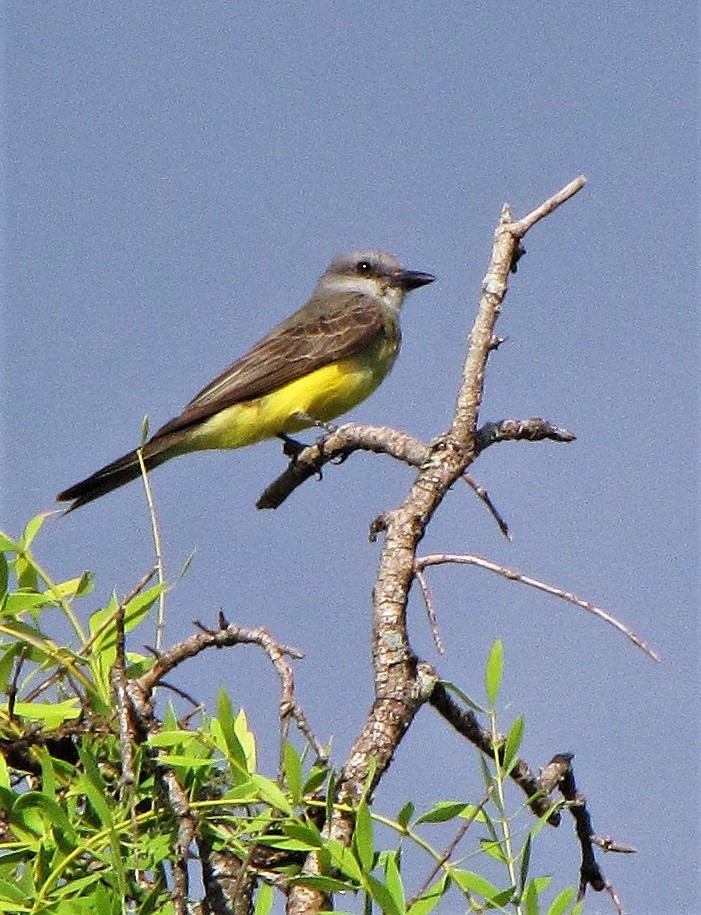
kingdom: Animalia
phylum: Chordata
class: Aves
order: Passeriformes
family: Tyrannidae
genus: Tyrannus
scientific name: Tyrannus melancholicus
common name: Tropical kingbird
